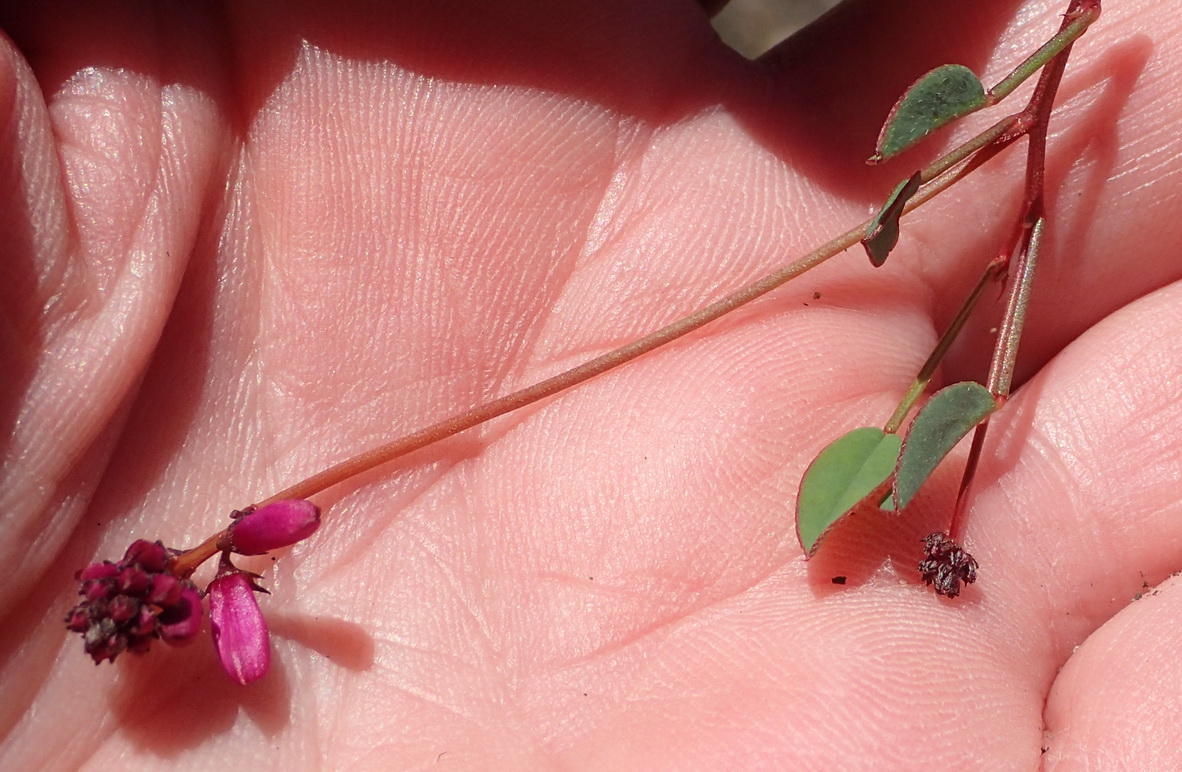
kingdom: Plantae
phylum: Tracheophyta
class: Magnoliopsida
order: Fabales
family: Fabaceae
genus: Indigofera
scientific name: Indigofera
